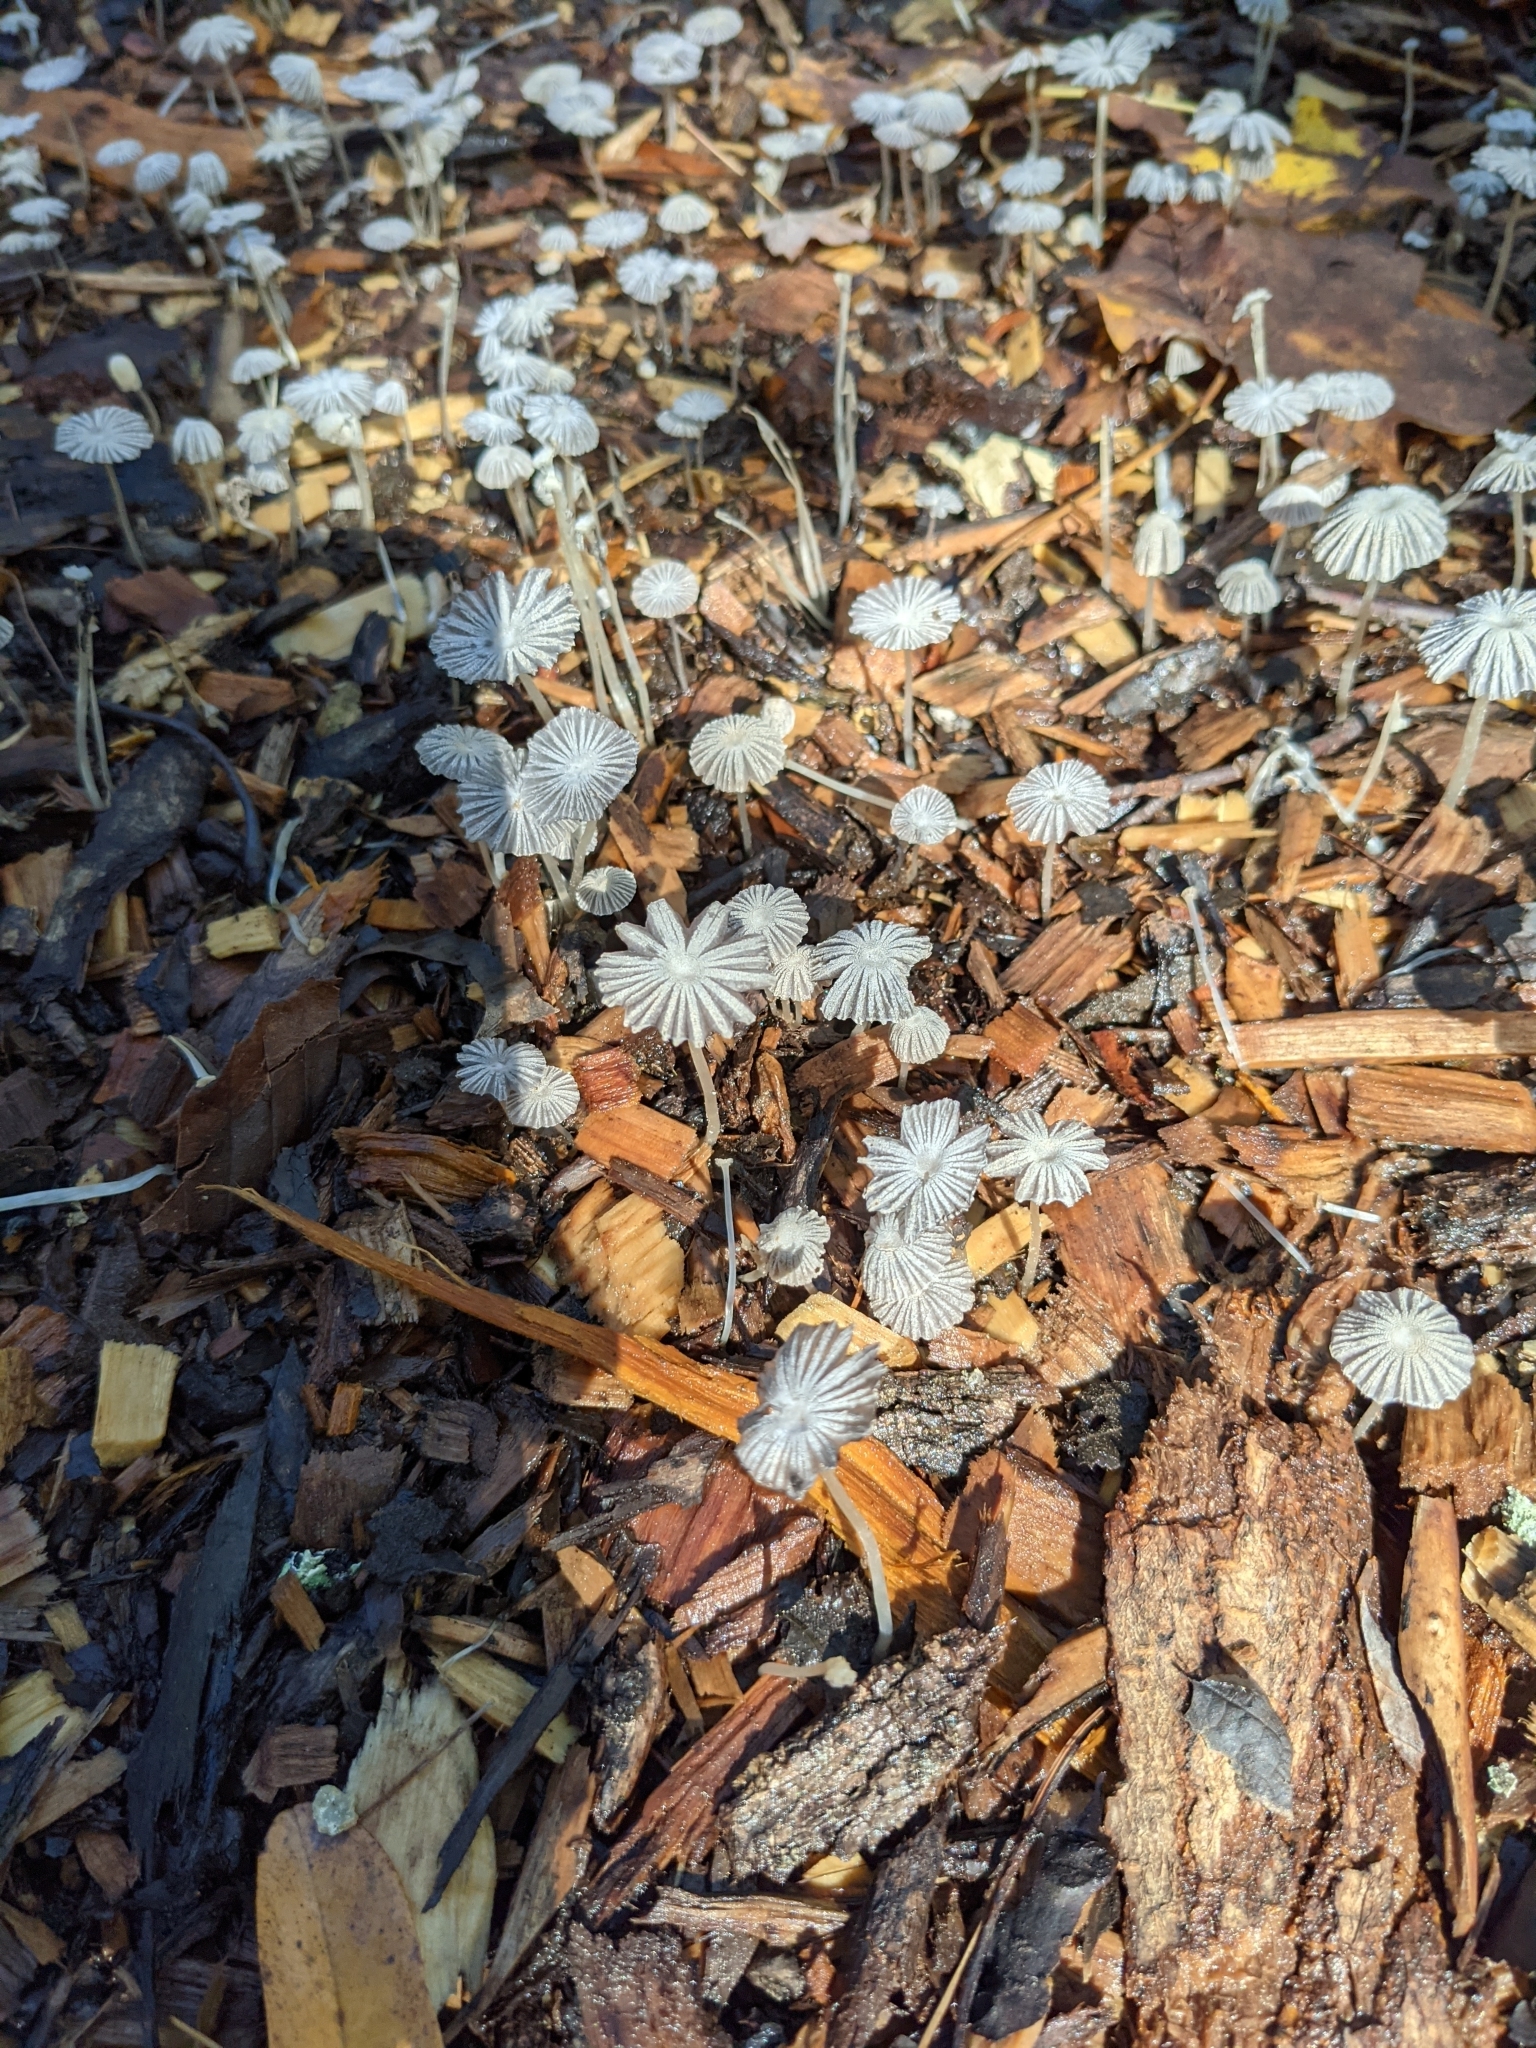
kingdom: Fungi
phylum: Basidiomycota
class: Agaricomycetes
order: Agaricales
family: Psathyrellaceae
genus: Parasola
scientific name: Parasola plicatilis
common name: Pleated inkcap
